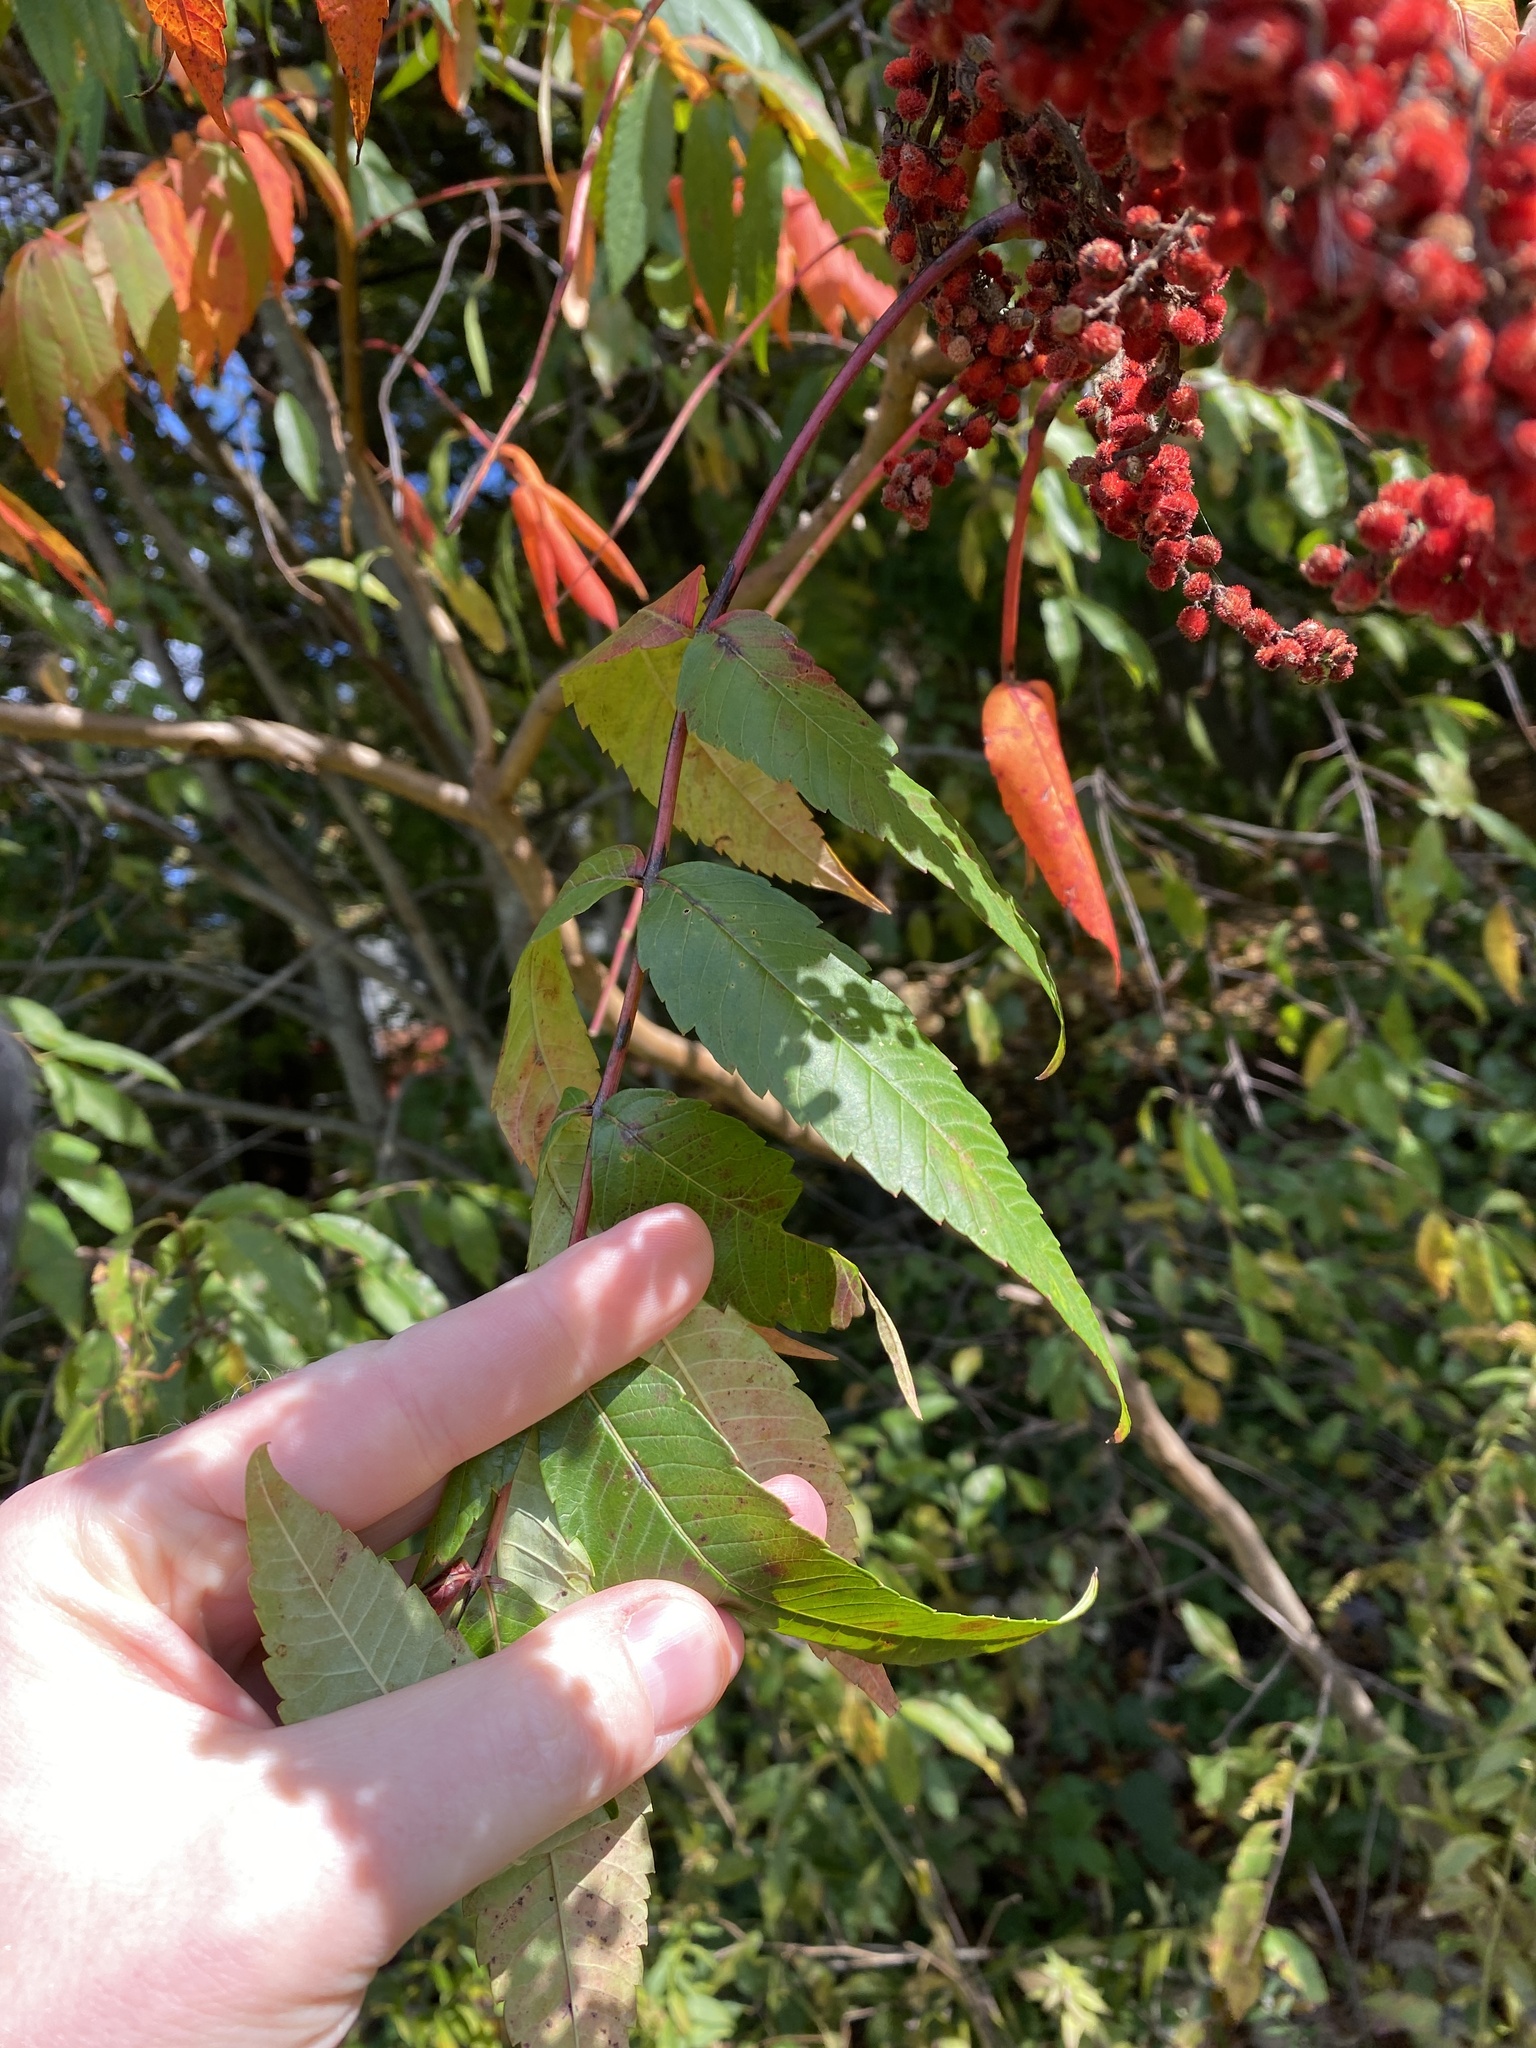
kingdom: Plantae
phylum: Tracheophyta
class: Magnoliopsida
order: Sapindales
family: Anacardiaceae
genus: Rhus
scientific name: Rhus glabra
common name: Scarlet sumac
